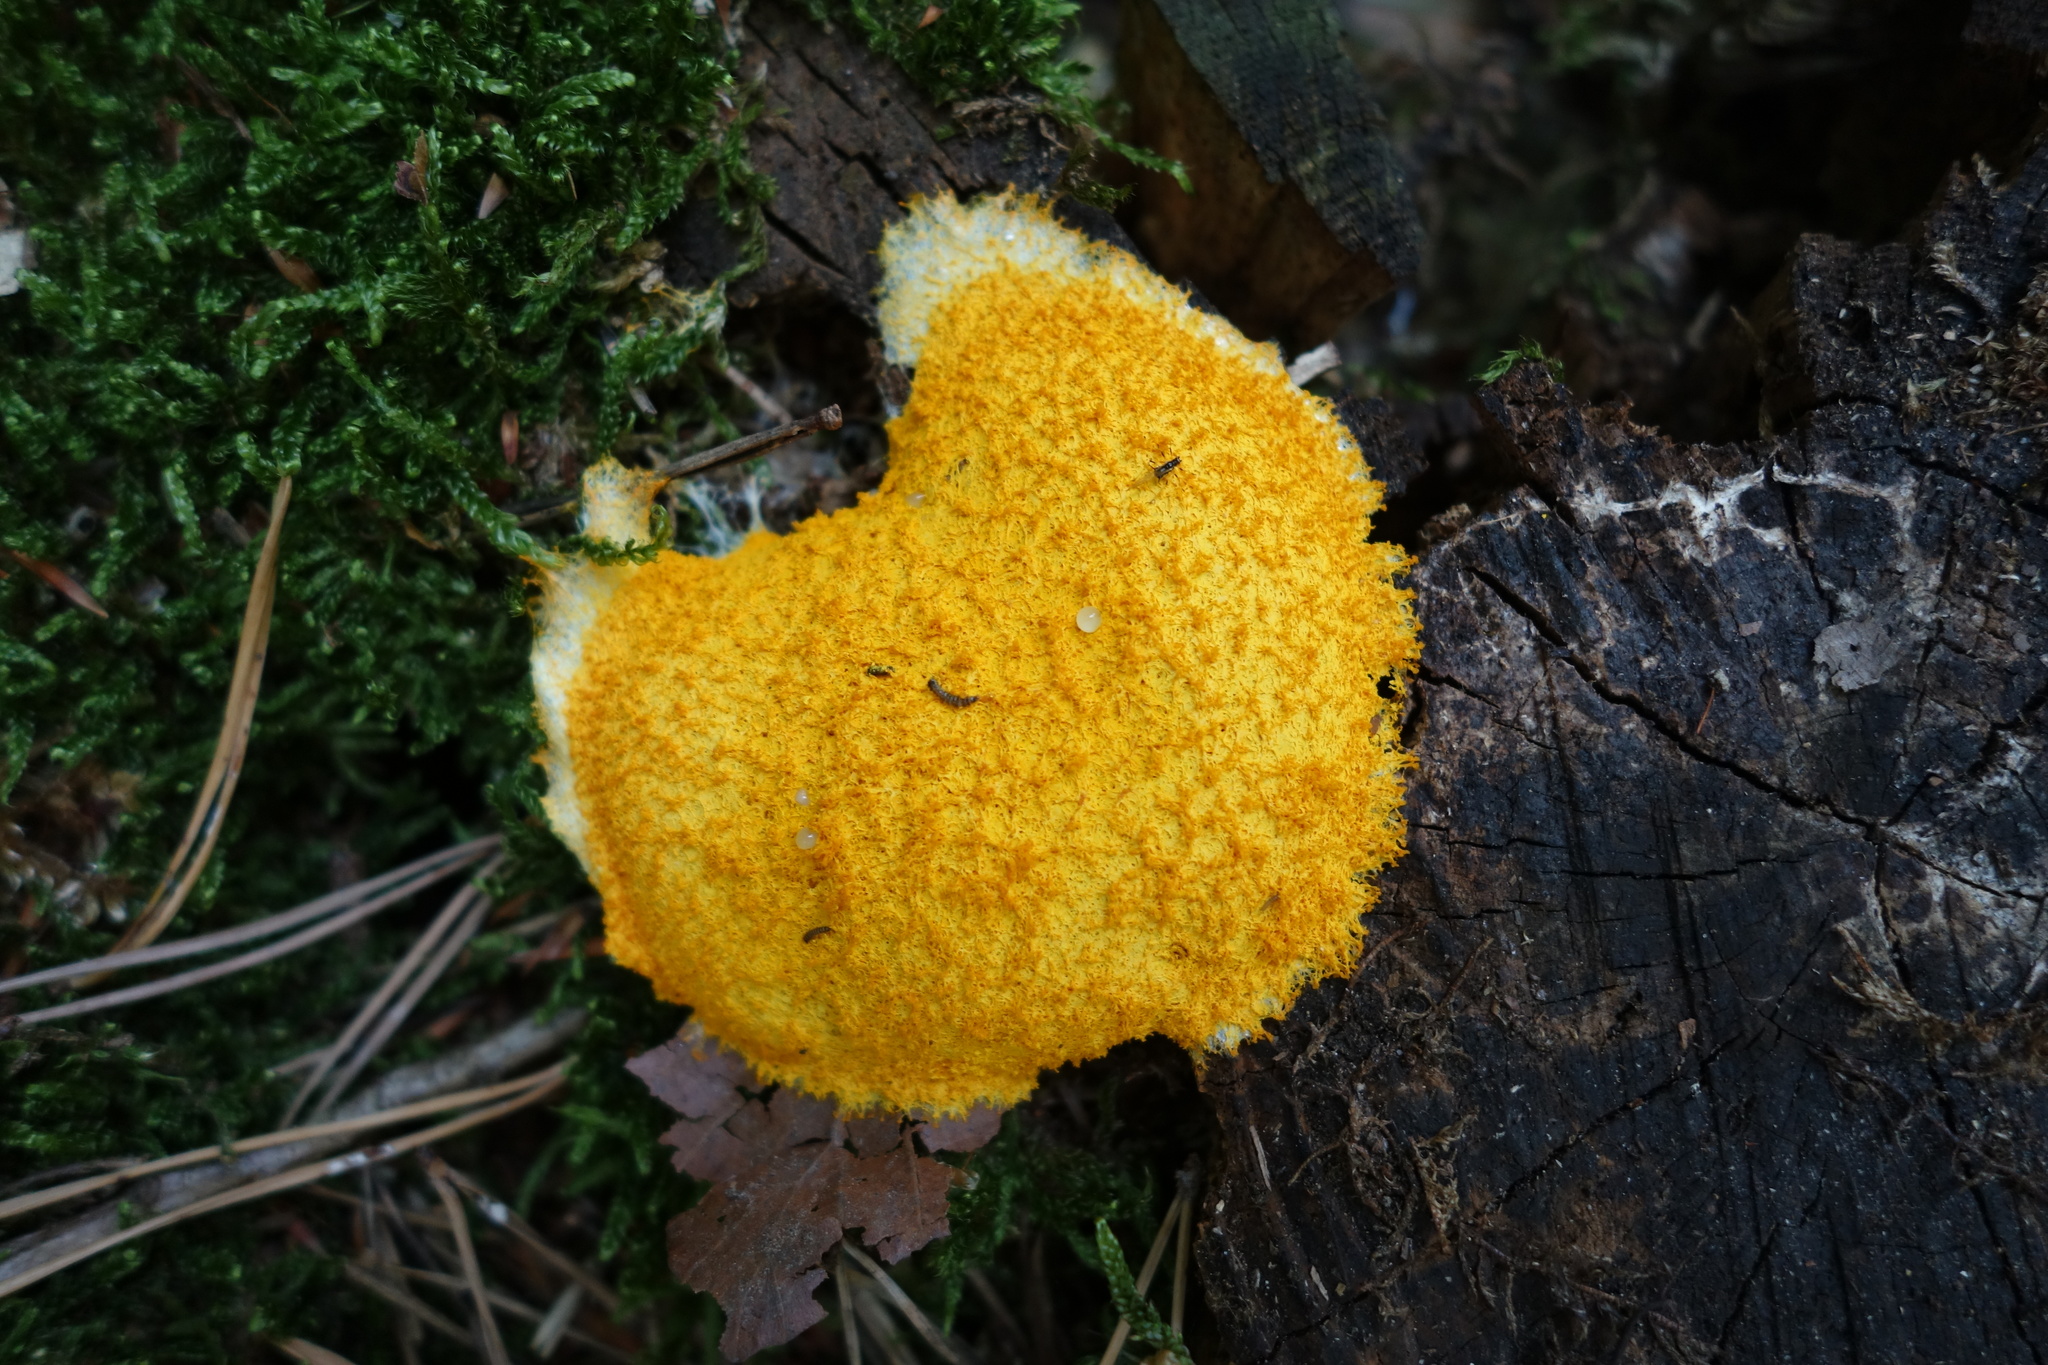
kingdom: Protozoa
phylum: Mycetozoa
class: Myxomycetes
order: Physarales
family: Physaraceae
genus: Fuligo
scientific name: Fuligo septica
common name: Dog vomit slime mold
